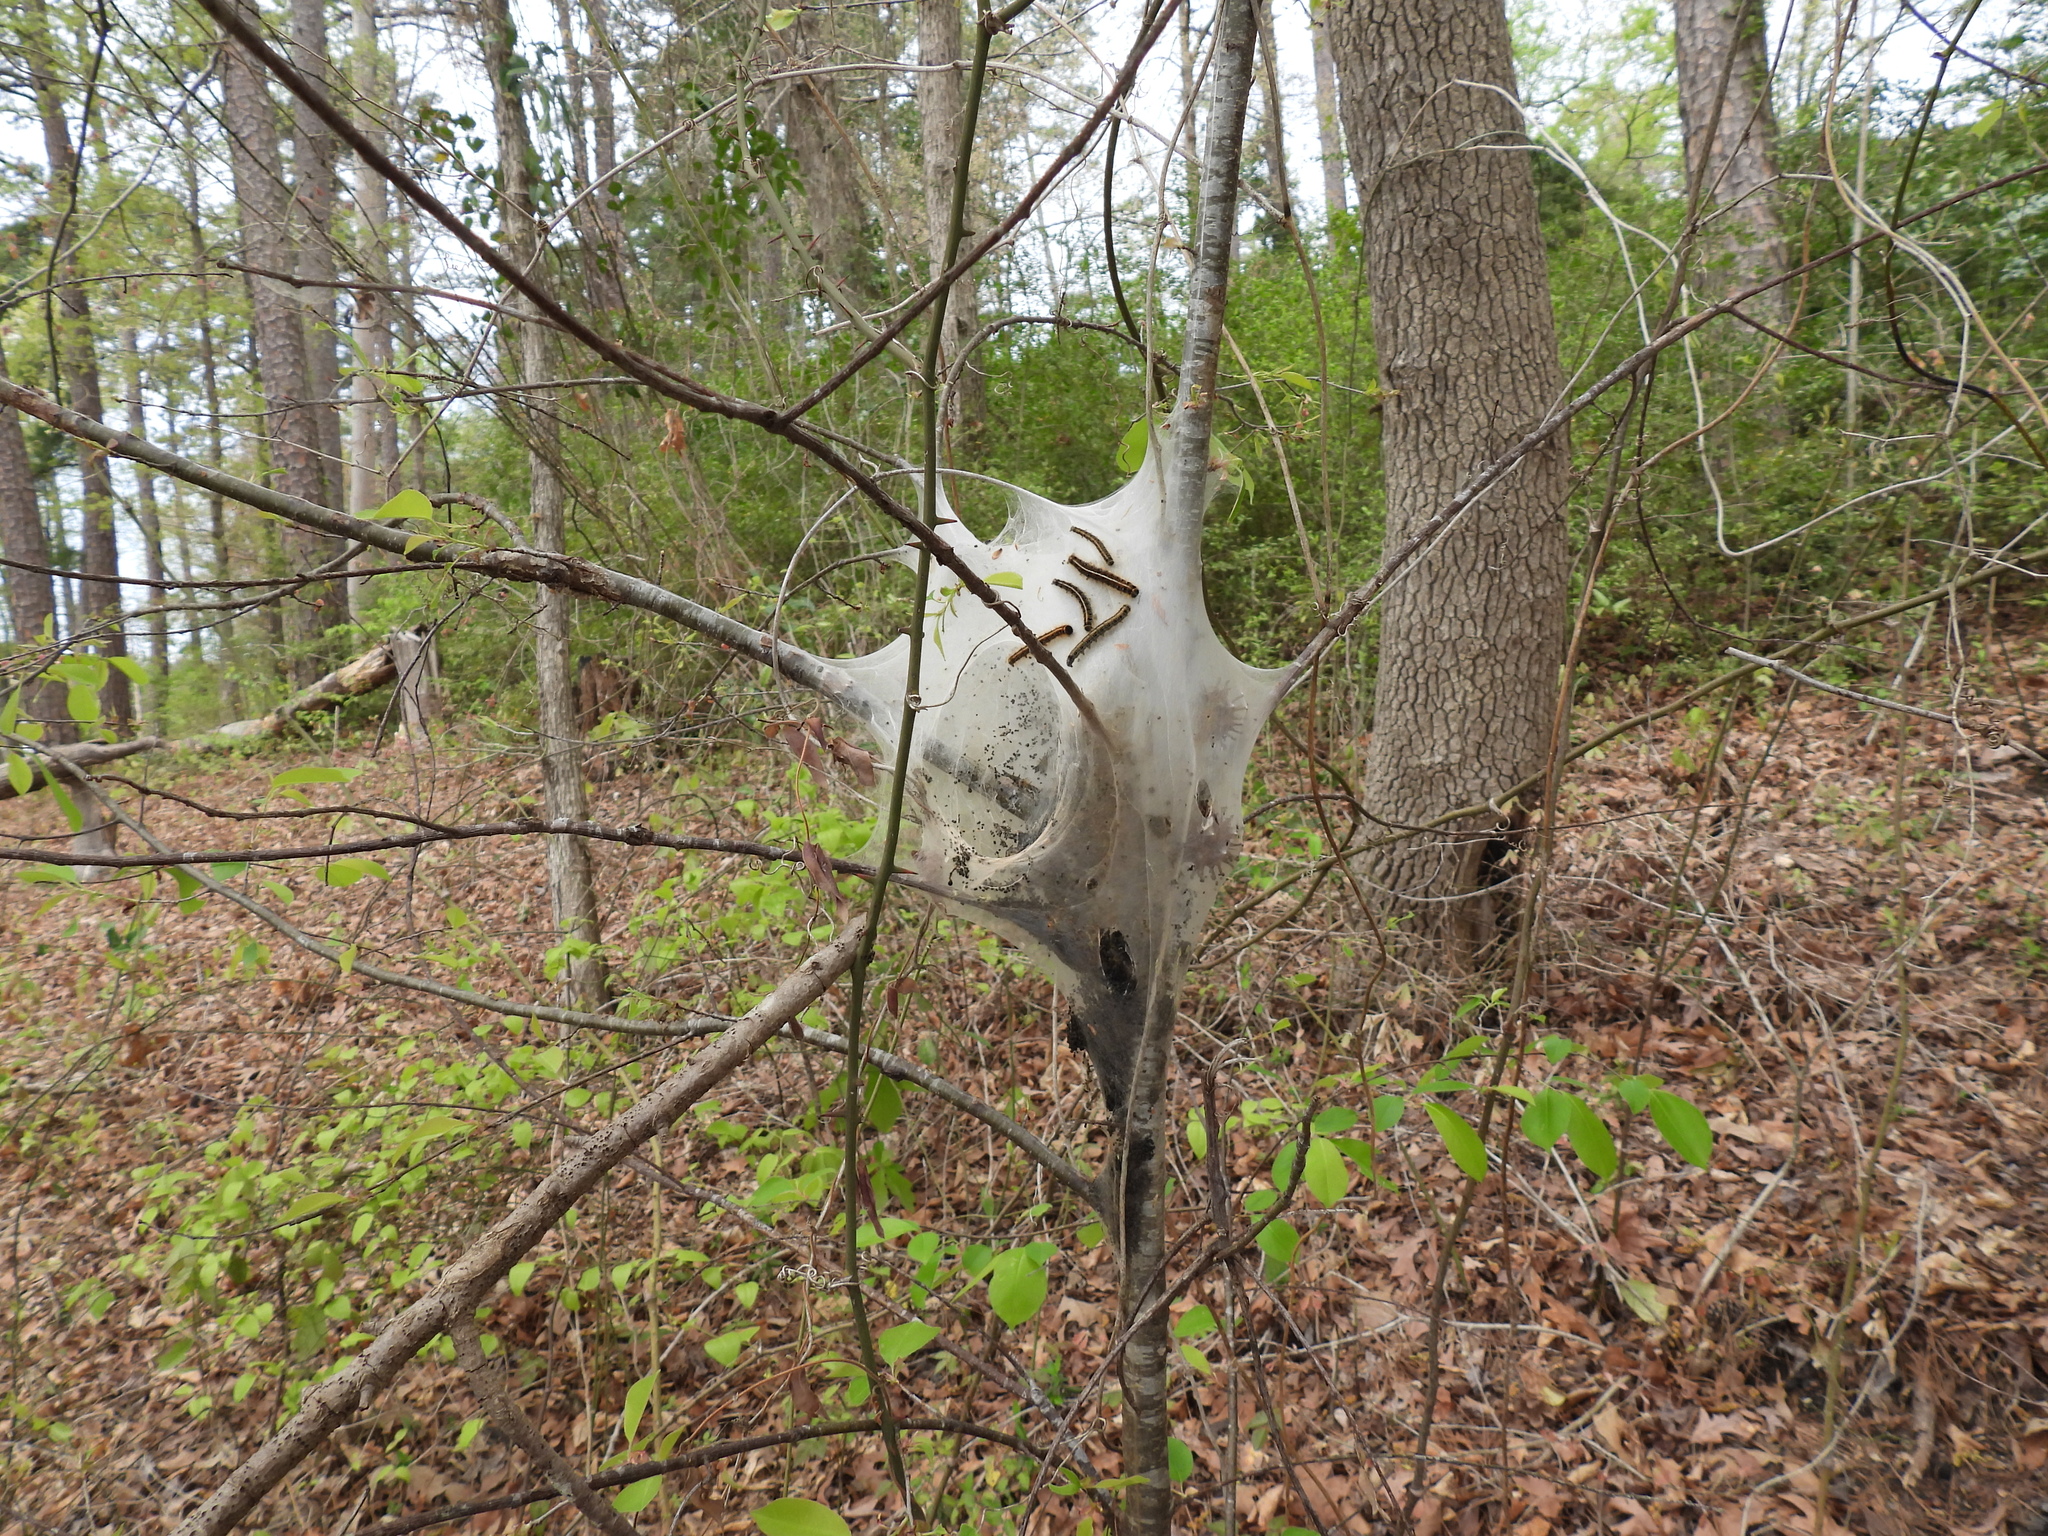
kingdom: Animalia
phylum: Arthropoda
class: Insecta
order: Lepidoptera
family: Lasiocampidae
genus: Malacosoma
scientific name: Malacosoma americana
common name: Eastern tent caterpillar moth
